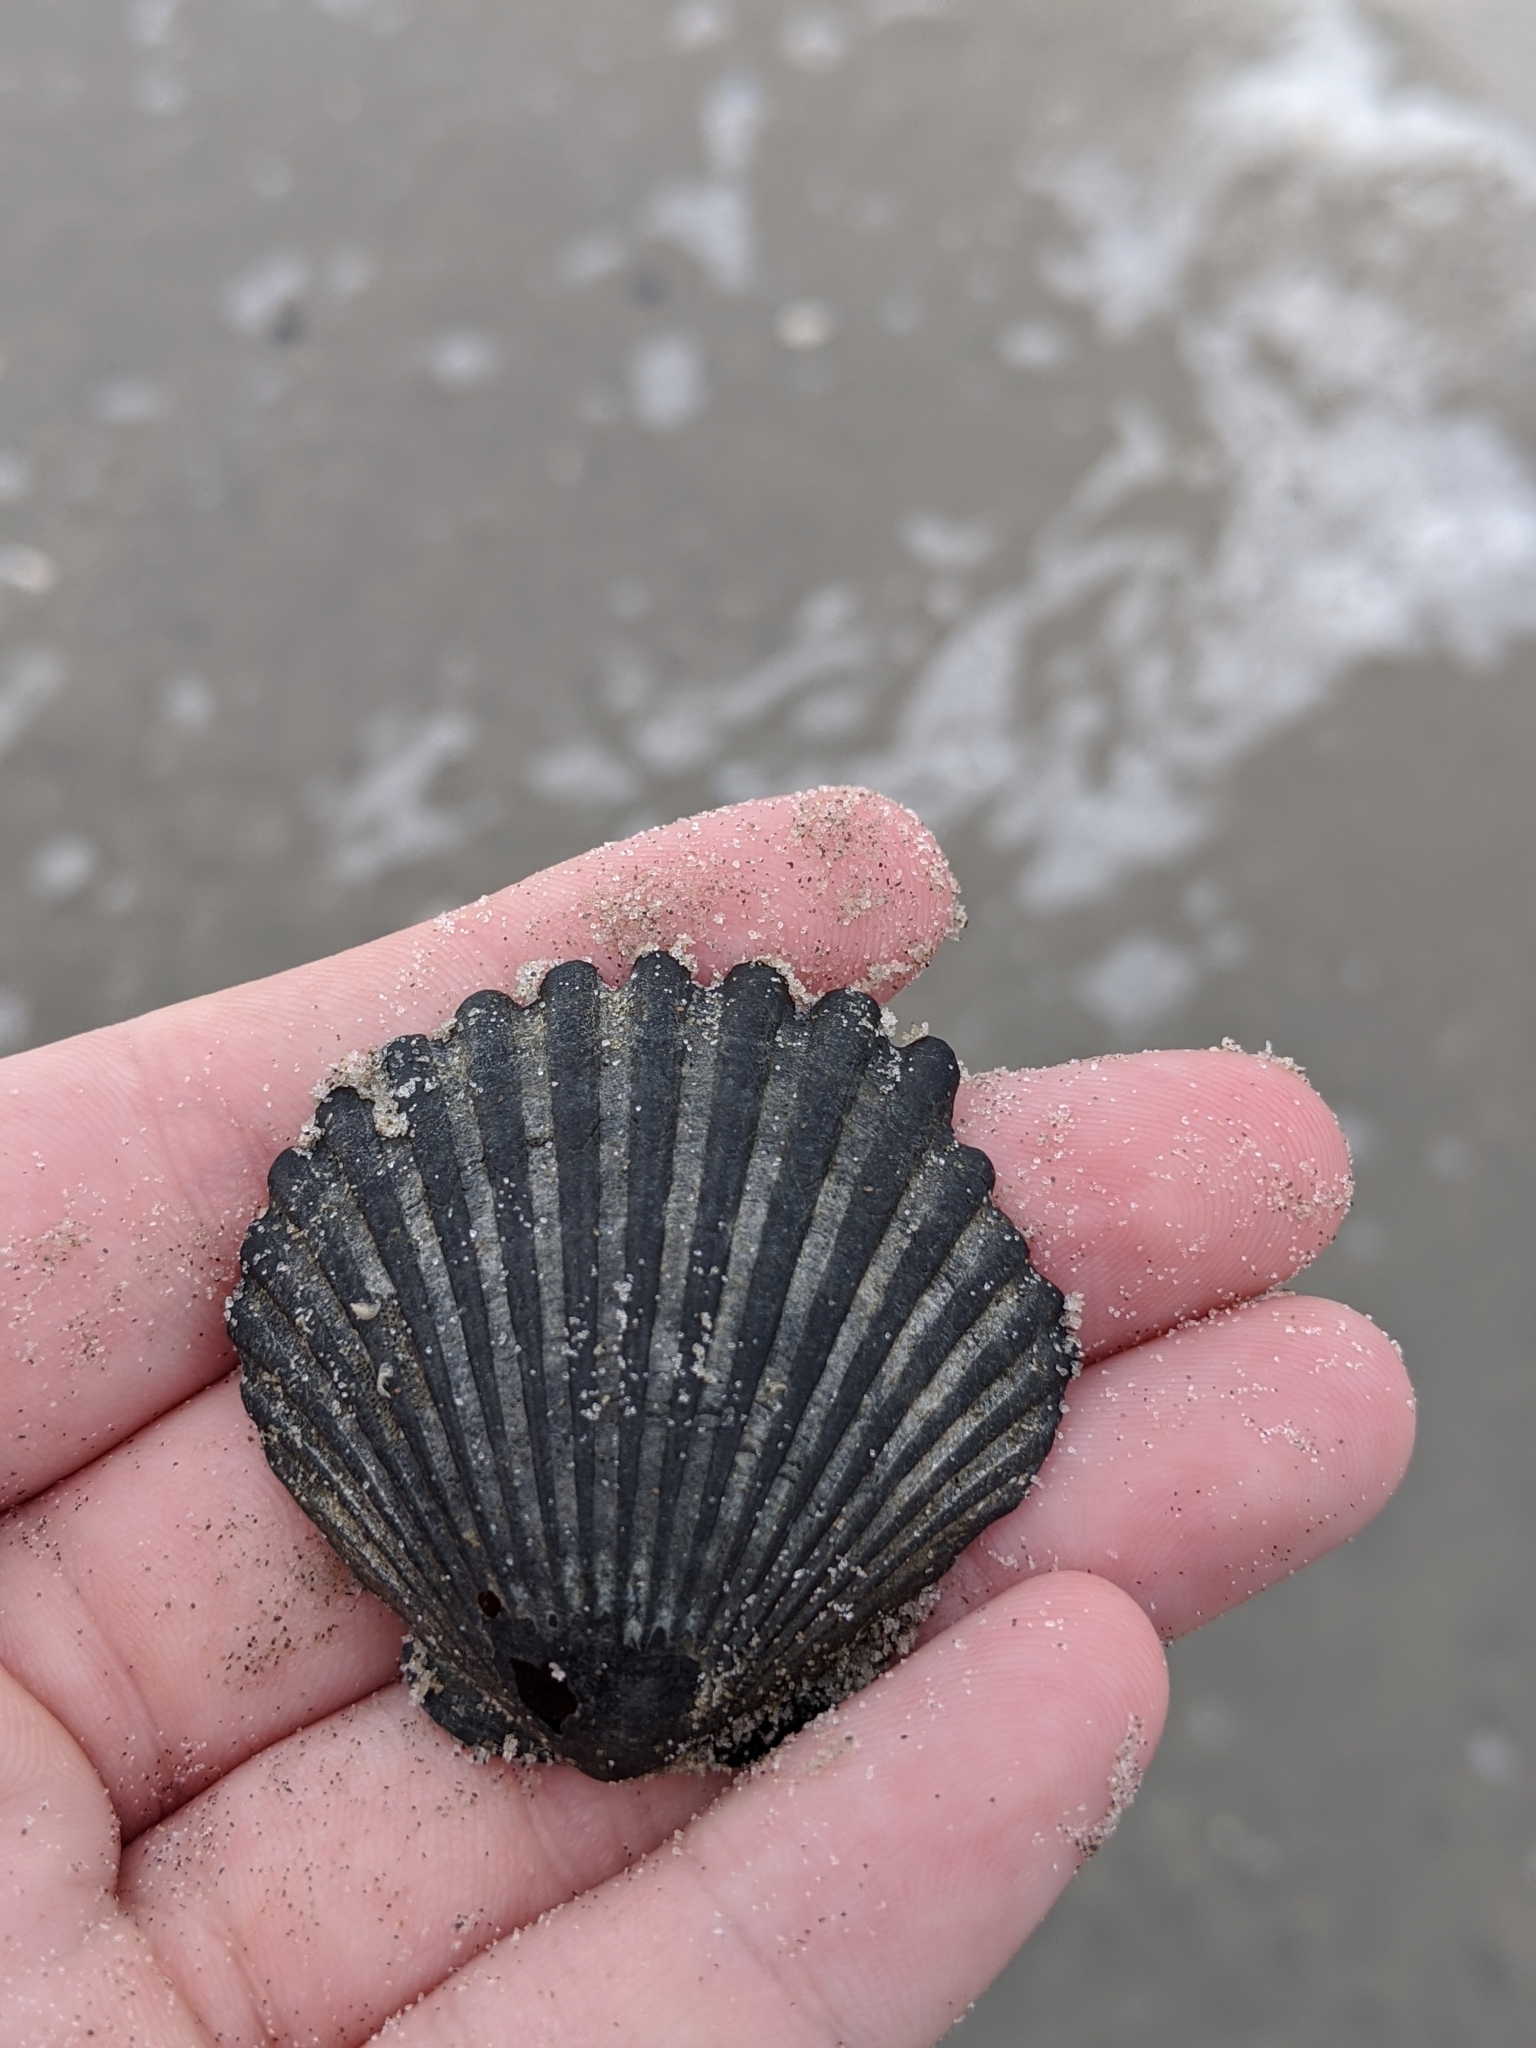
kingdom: Animalia
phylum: Mollusca
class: Bivalvia
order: Pectinida
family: Pectinidae
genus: Argopecten
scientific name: Argopecten irradians
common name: Atlantic bay scallop
